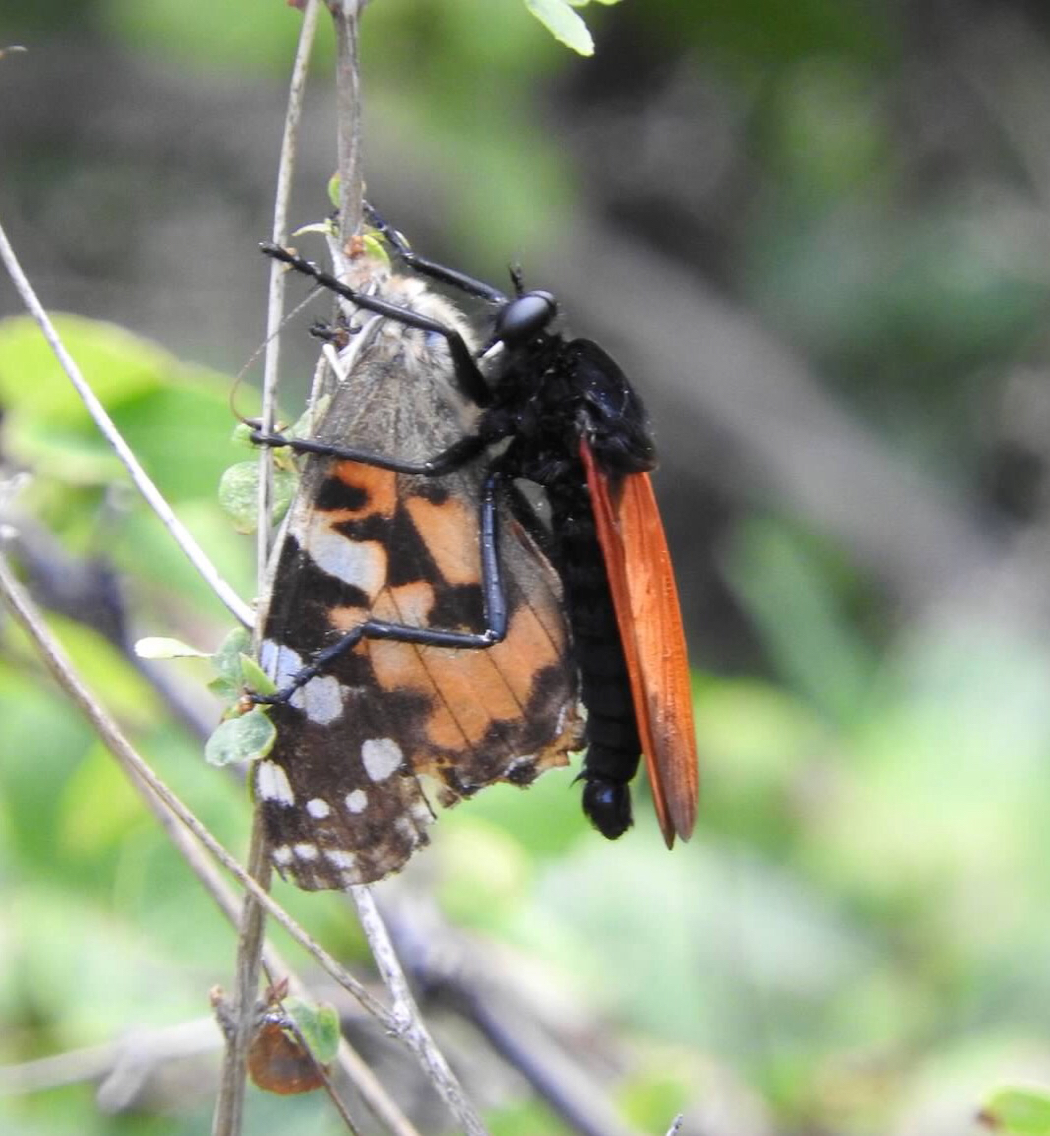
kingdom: Animalia
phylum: Arthropoda
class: Insecta
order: Lepidoptera
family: Nymphalidae
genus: Vanessa
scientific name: Vanessa cardui
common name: Painted lady
